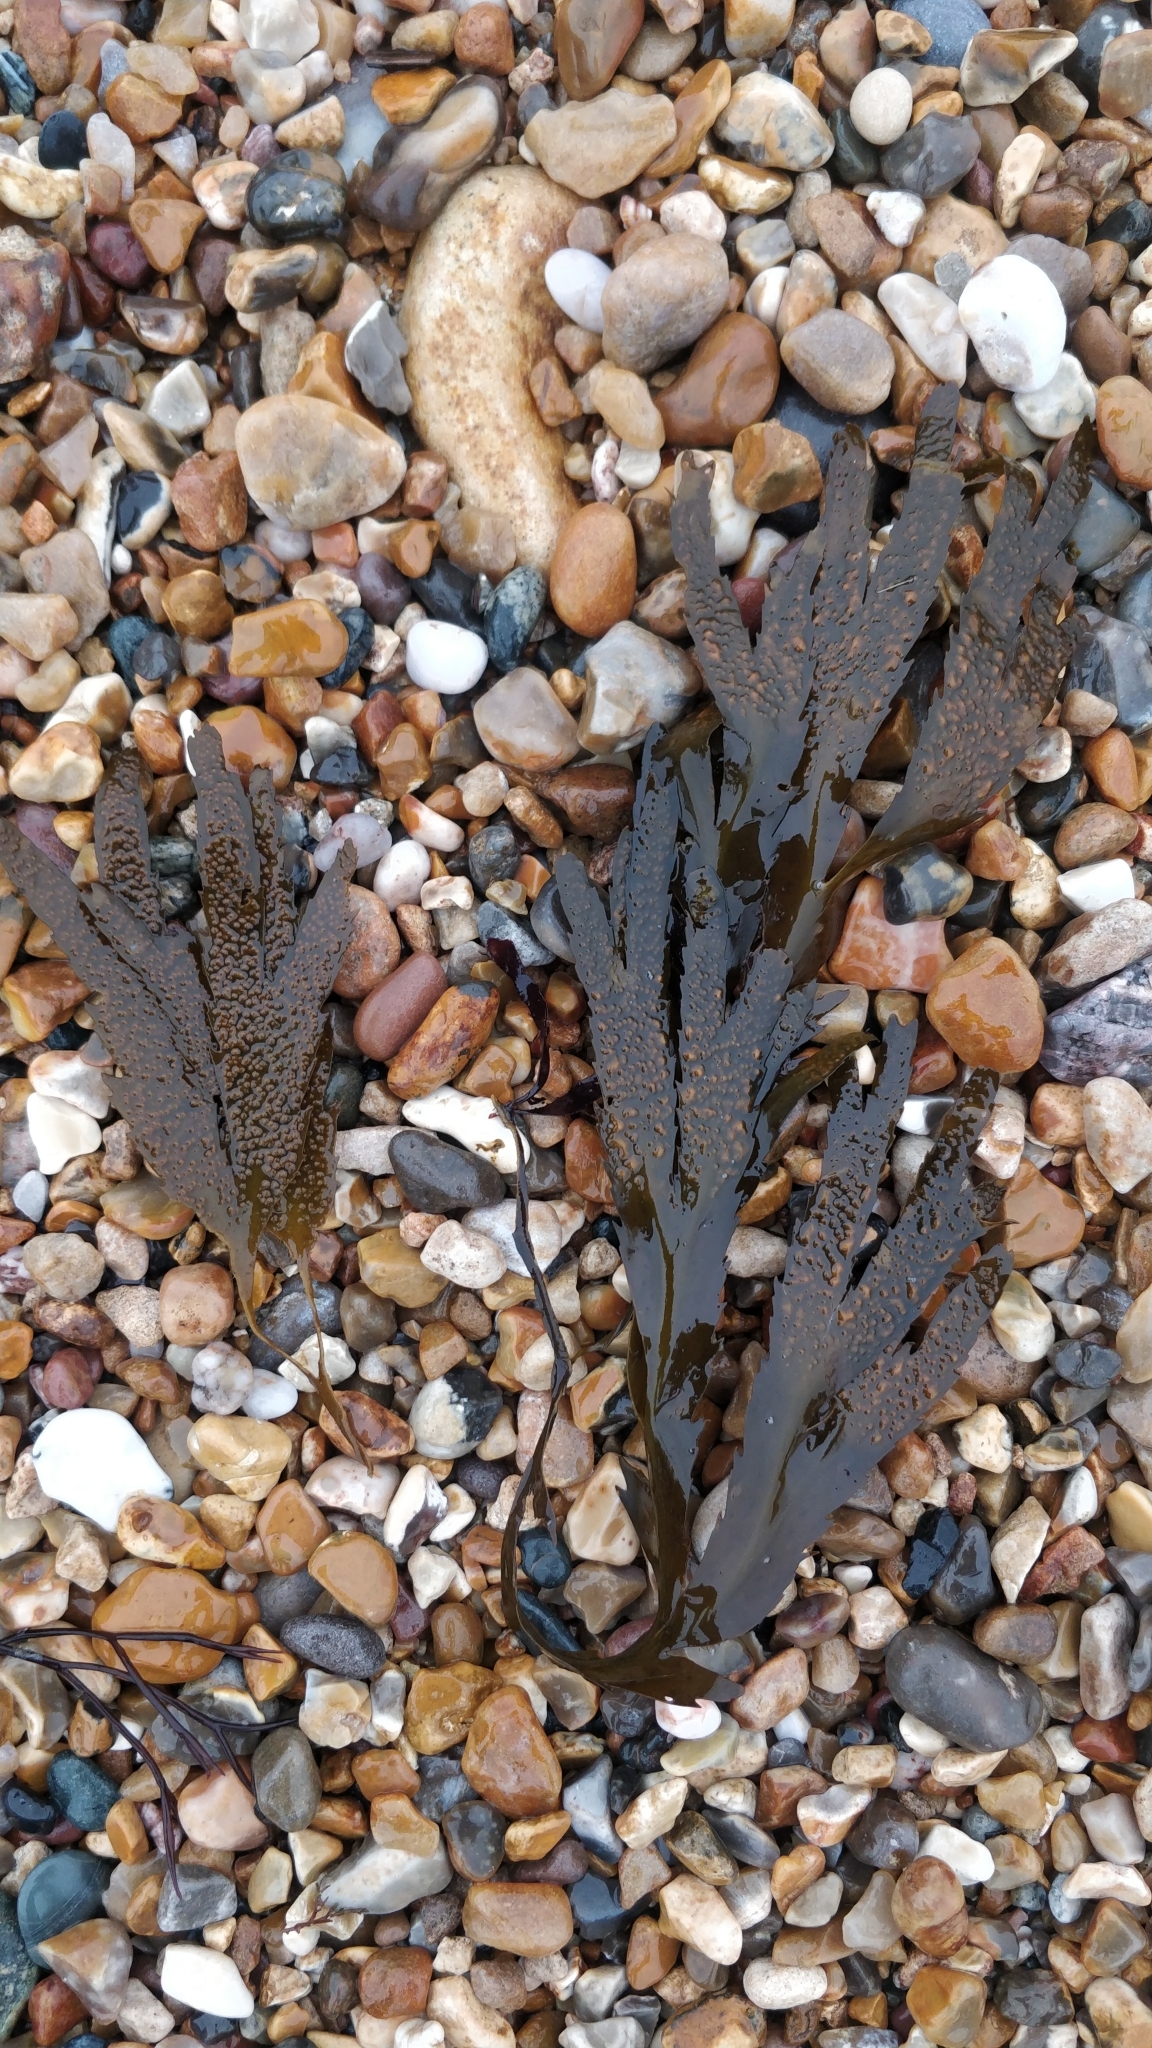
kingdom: Chromista
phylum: Ochrophyta
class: Phaeophyceae
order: Fucales
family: Fucaceae
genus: Fucus
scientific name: Fucus serratus
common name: Toothed wrack
